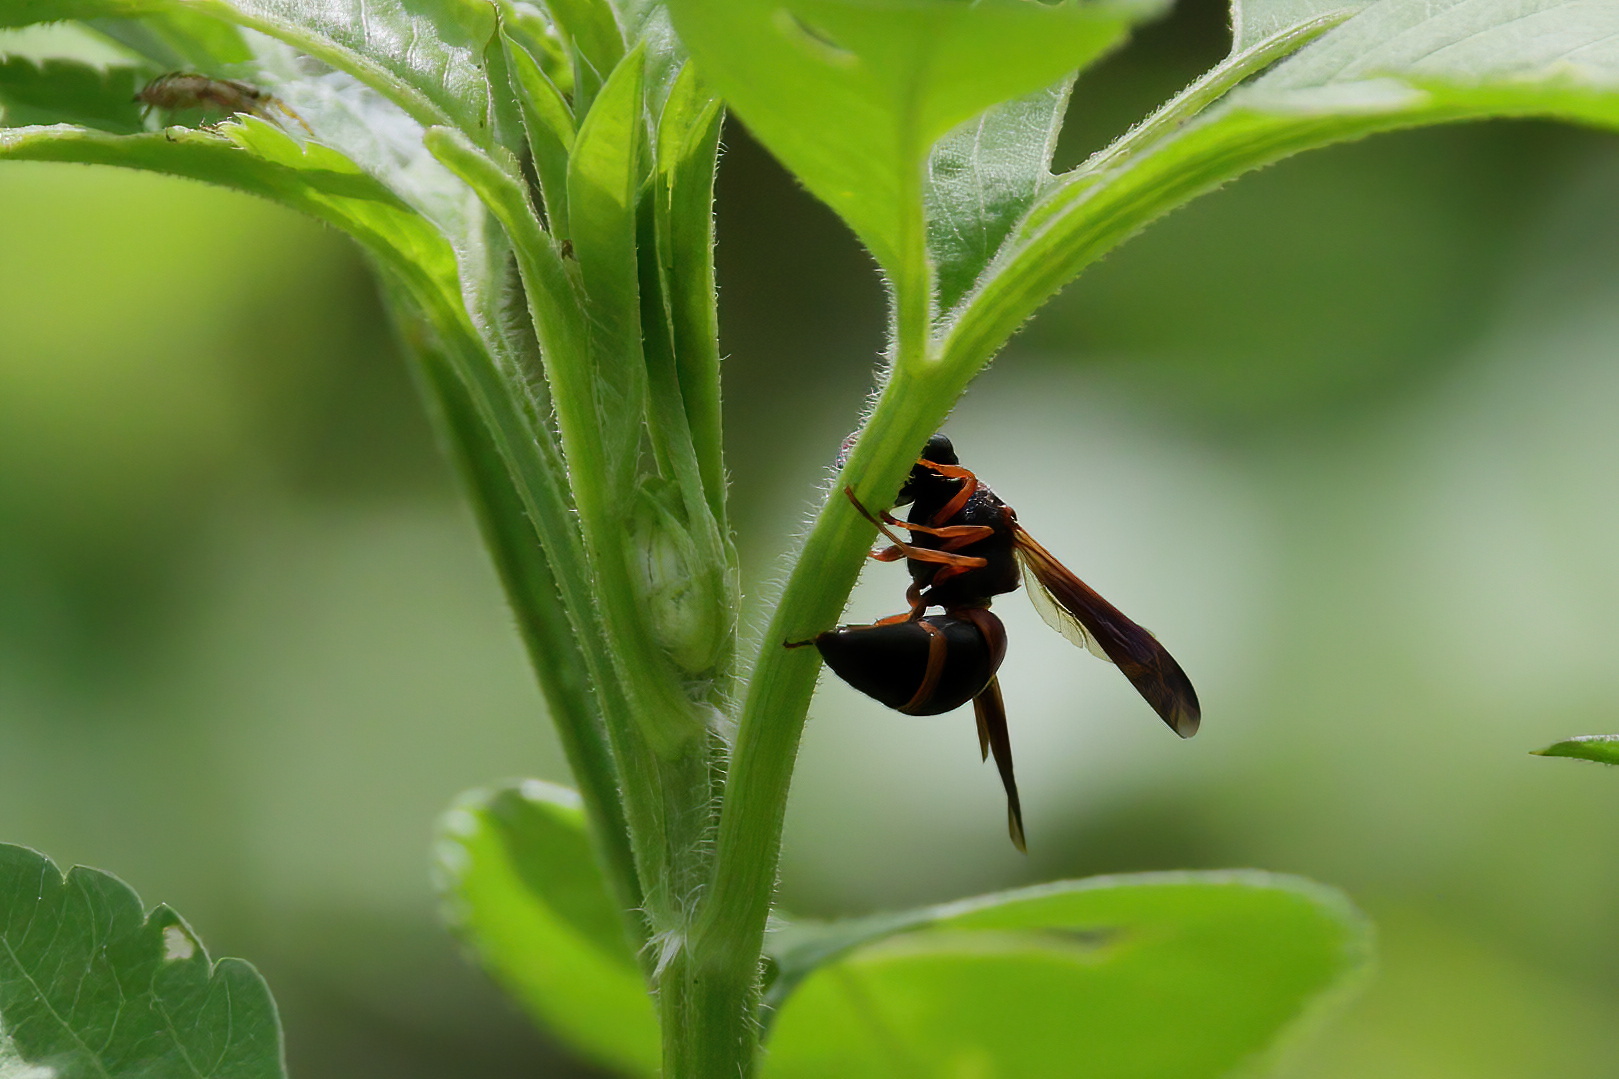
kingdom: Animalia
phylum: Arthropoda
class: Insecta
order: Hymenoptera
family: Eumenidae
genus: Pachodynerus
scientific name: Pachodynerus erynnis
